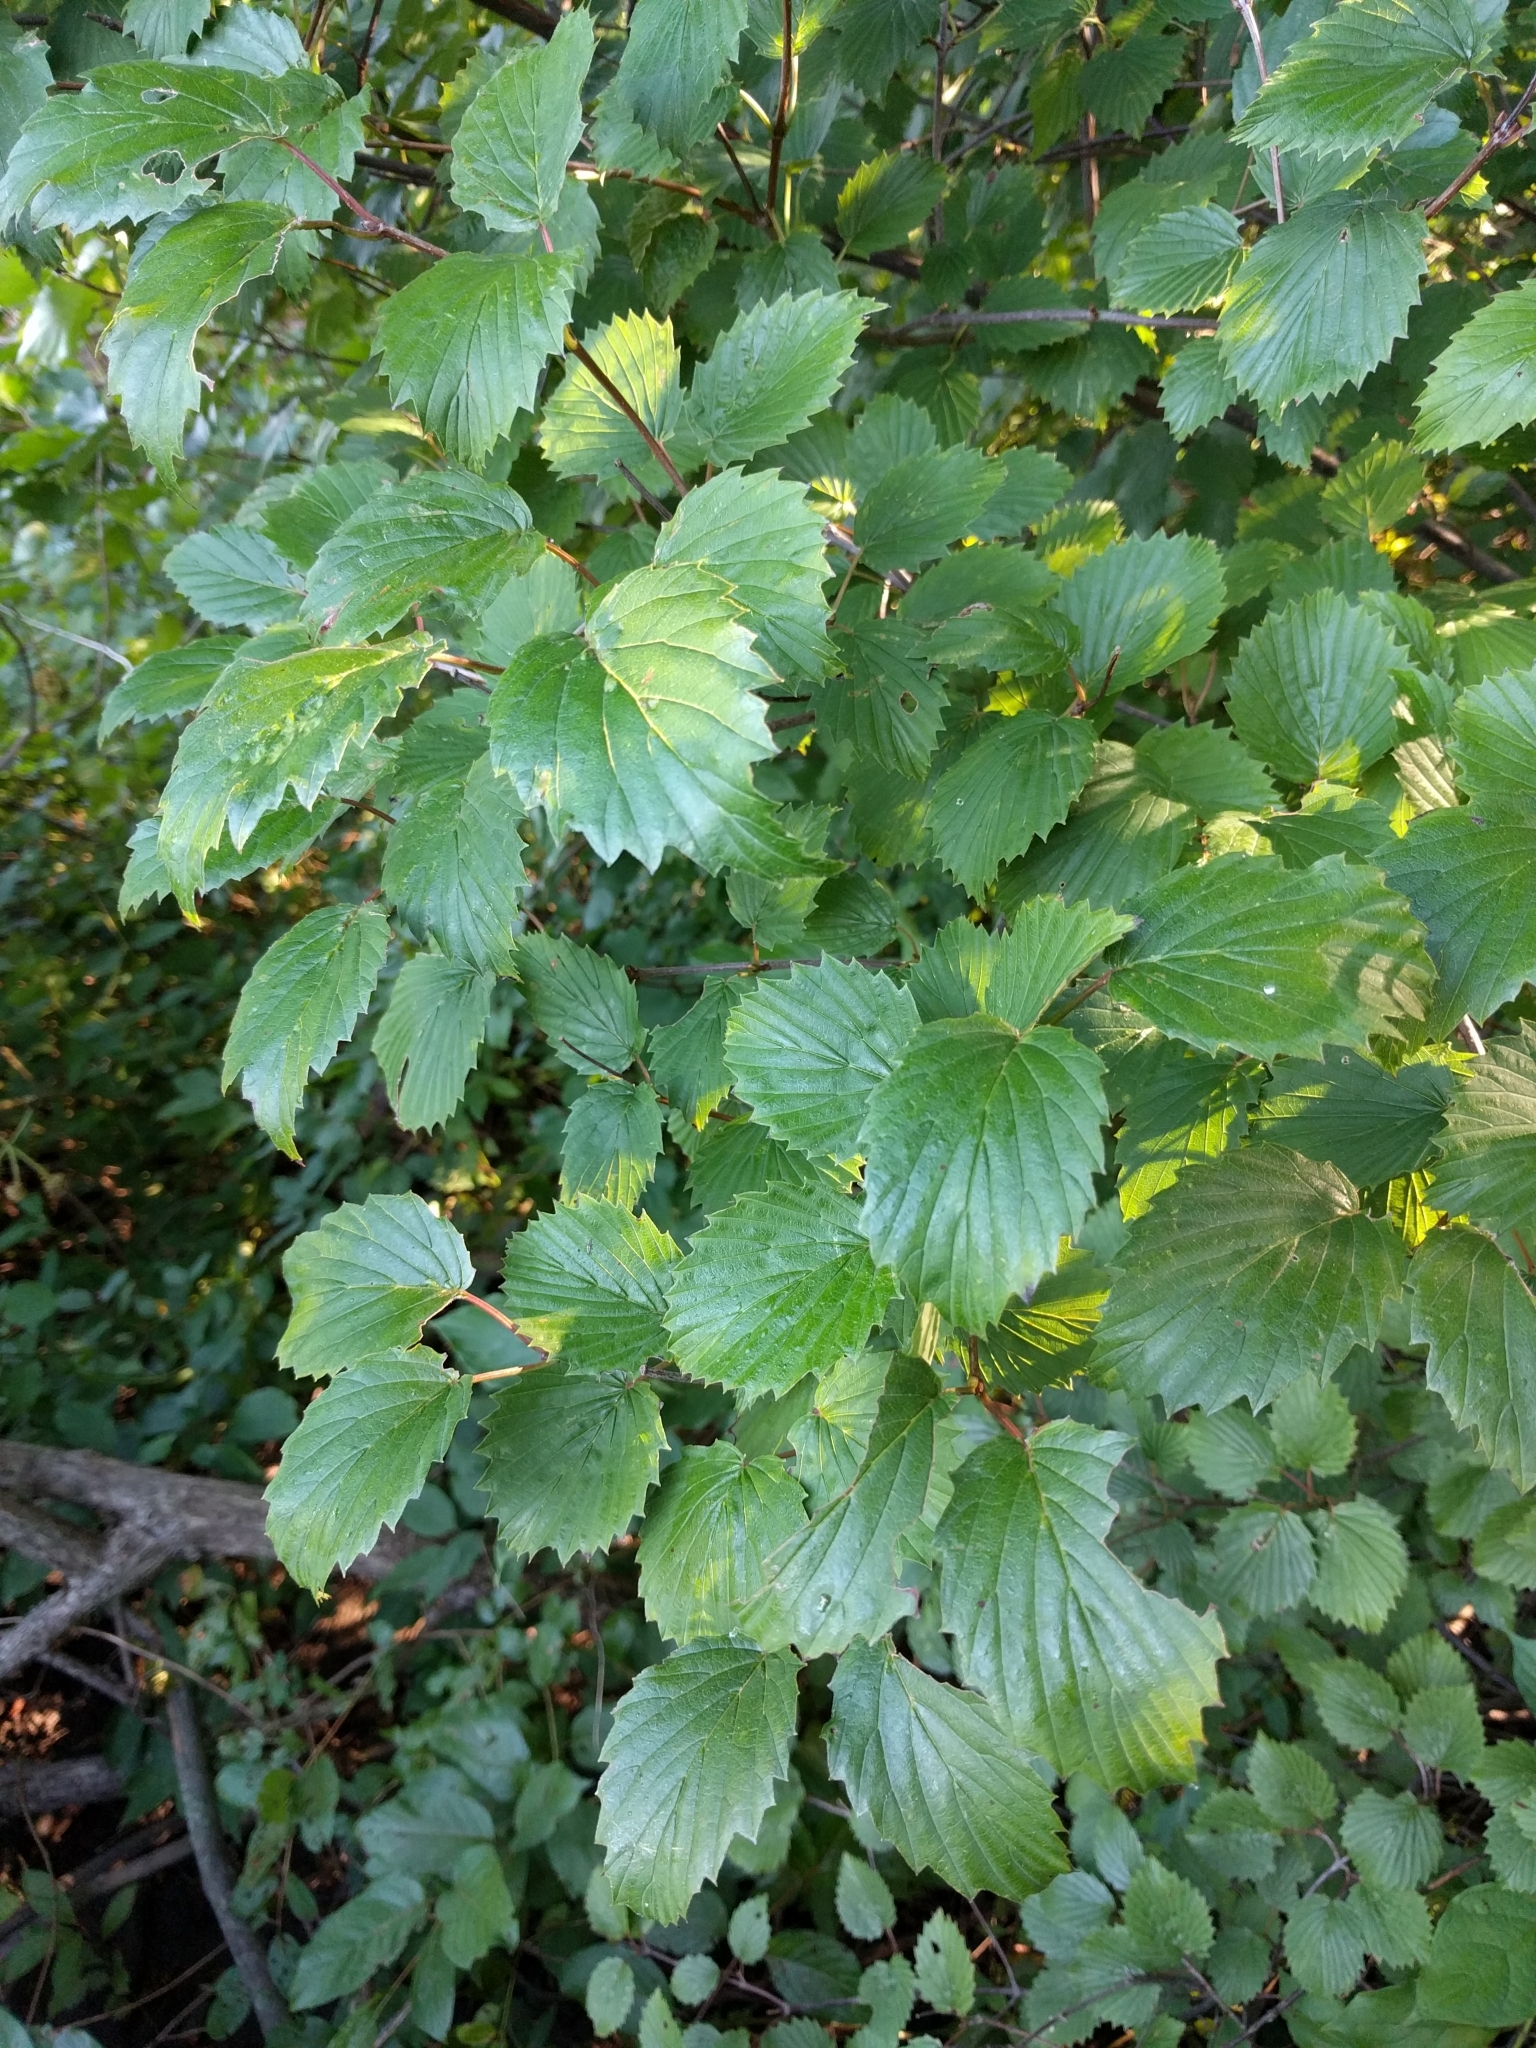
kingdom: Plantae
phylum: Tracheophyta
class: Magnoliopsida
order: Dipsacales
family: Viburnaceae
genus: Viburnum
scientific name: Viburnum dentatum
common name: Arrow-wood
